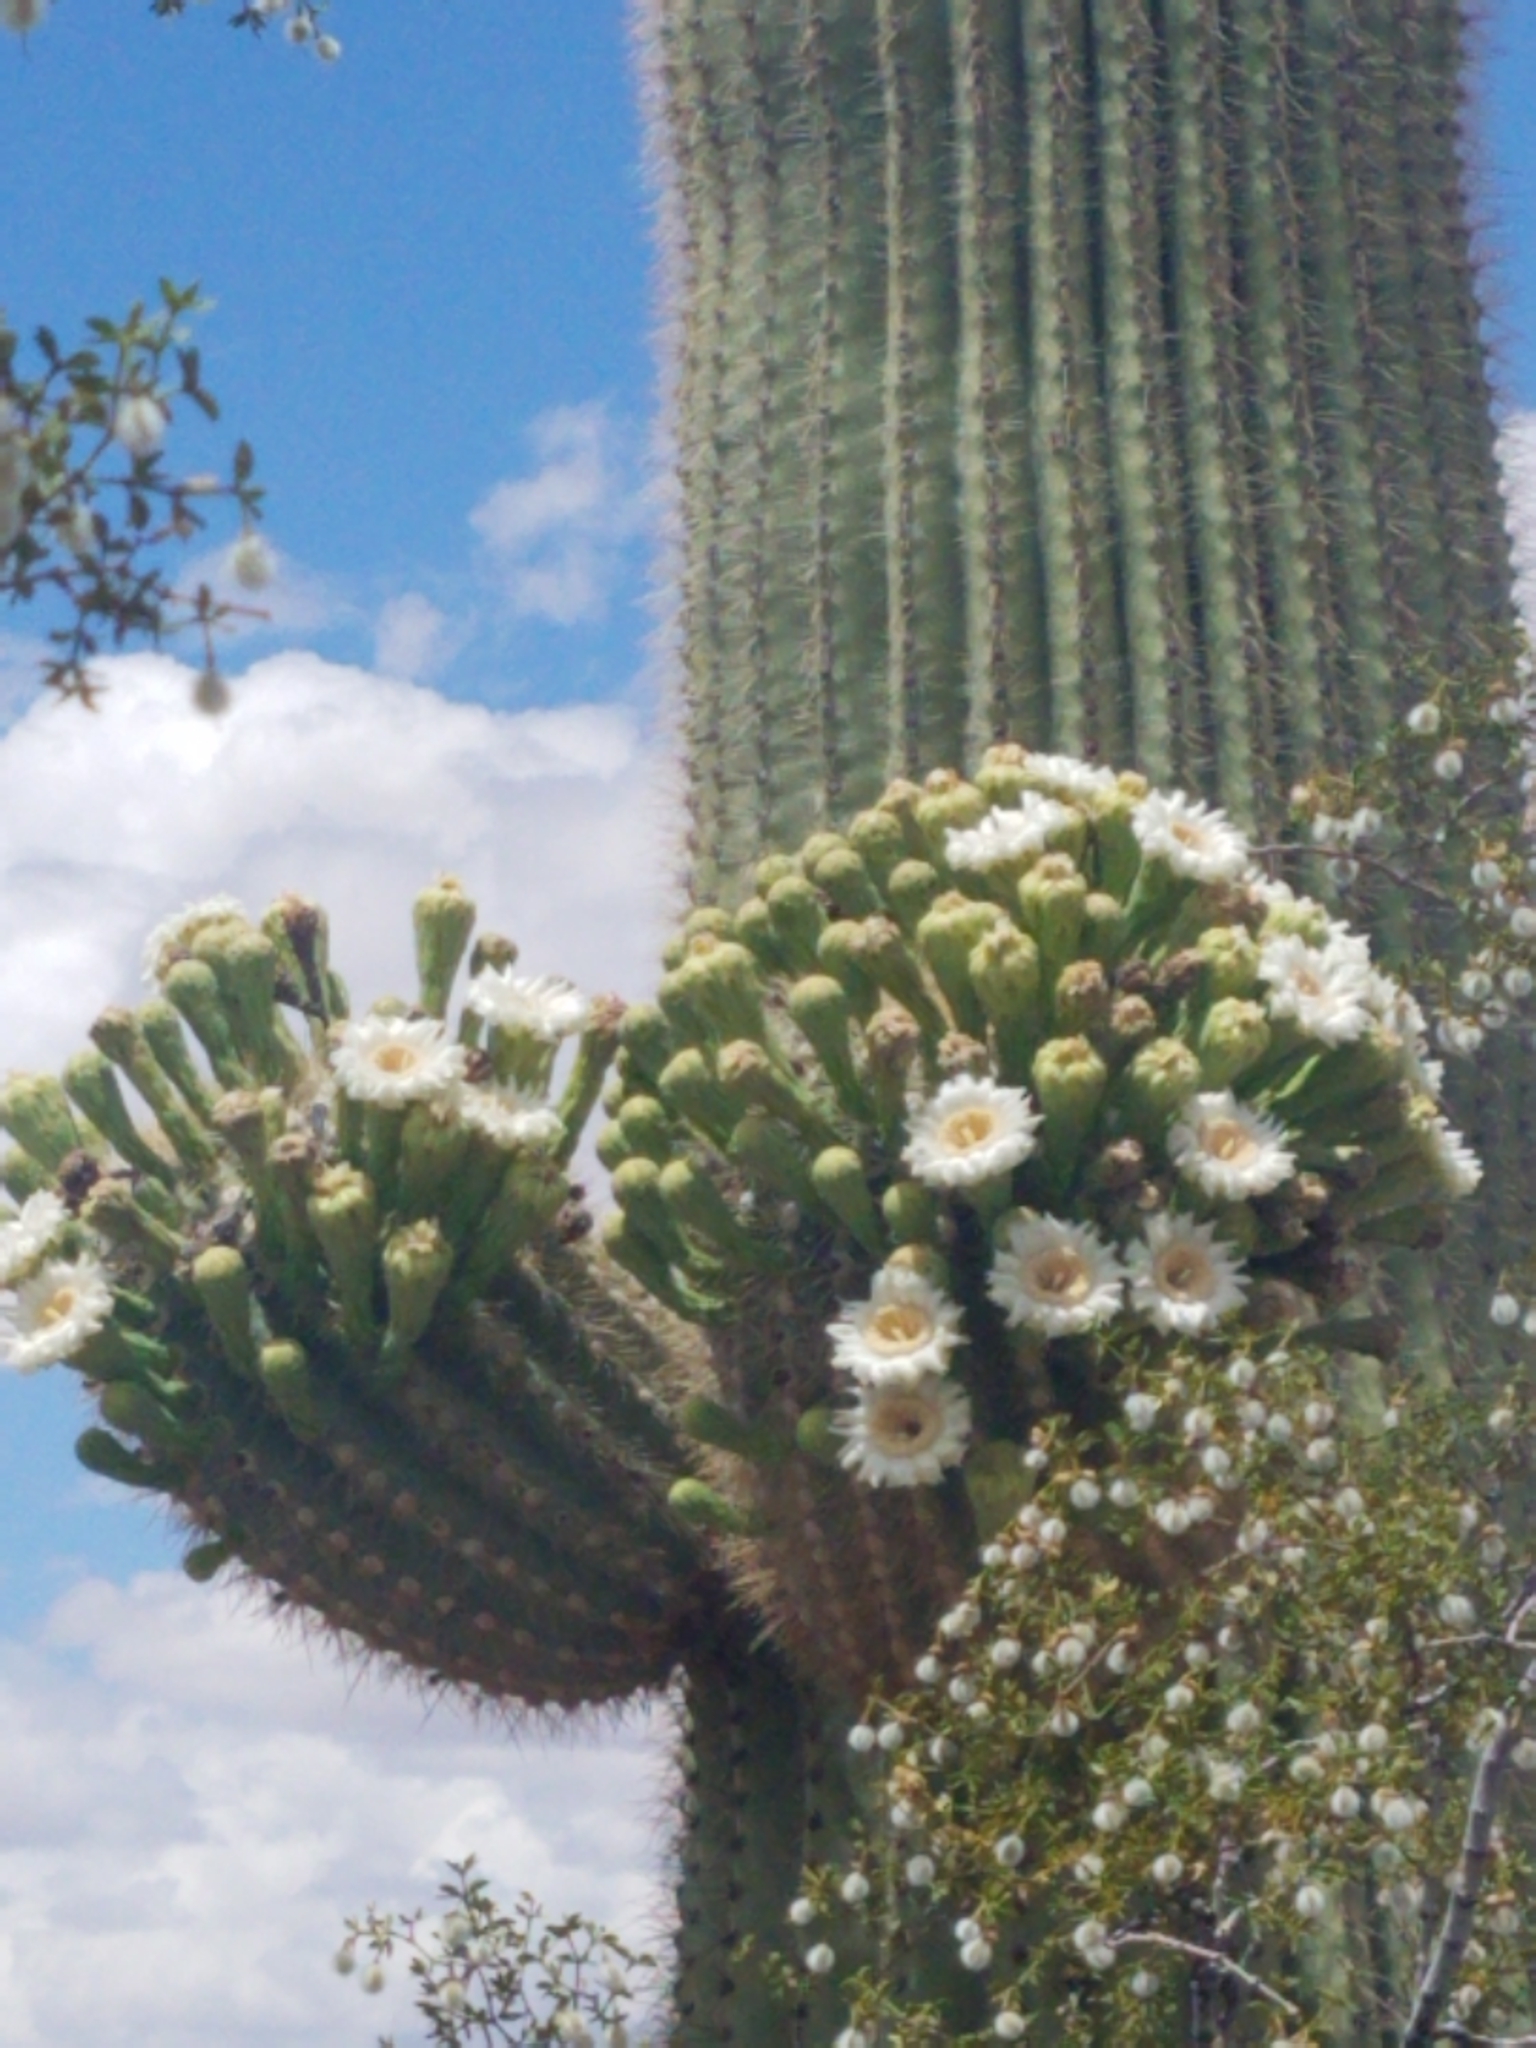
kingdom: Plantae
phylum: Tracheophyta
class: Magnoliopsida
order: Caryophyllales
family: Cactaceae
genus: Carnegiea
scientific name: Carnegiea gigantea
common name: Saguaro
